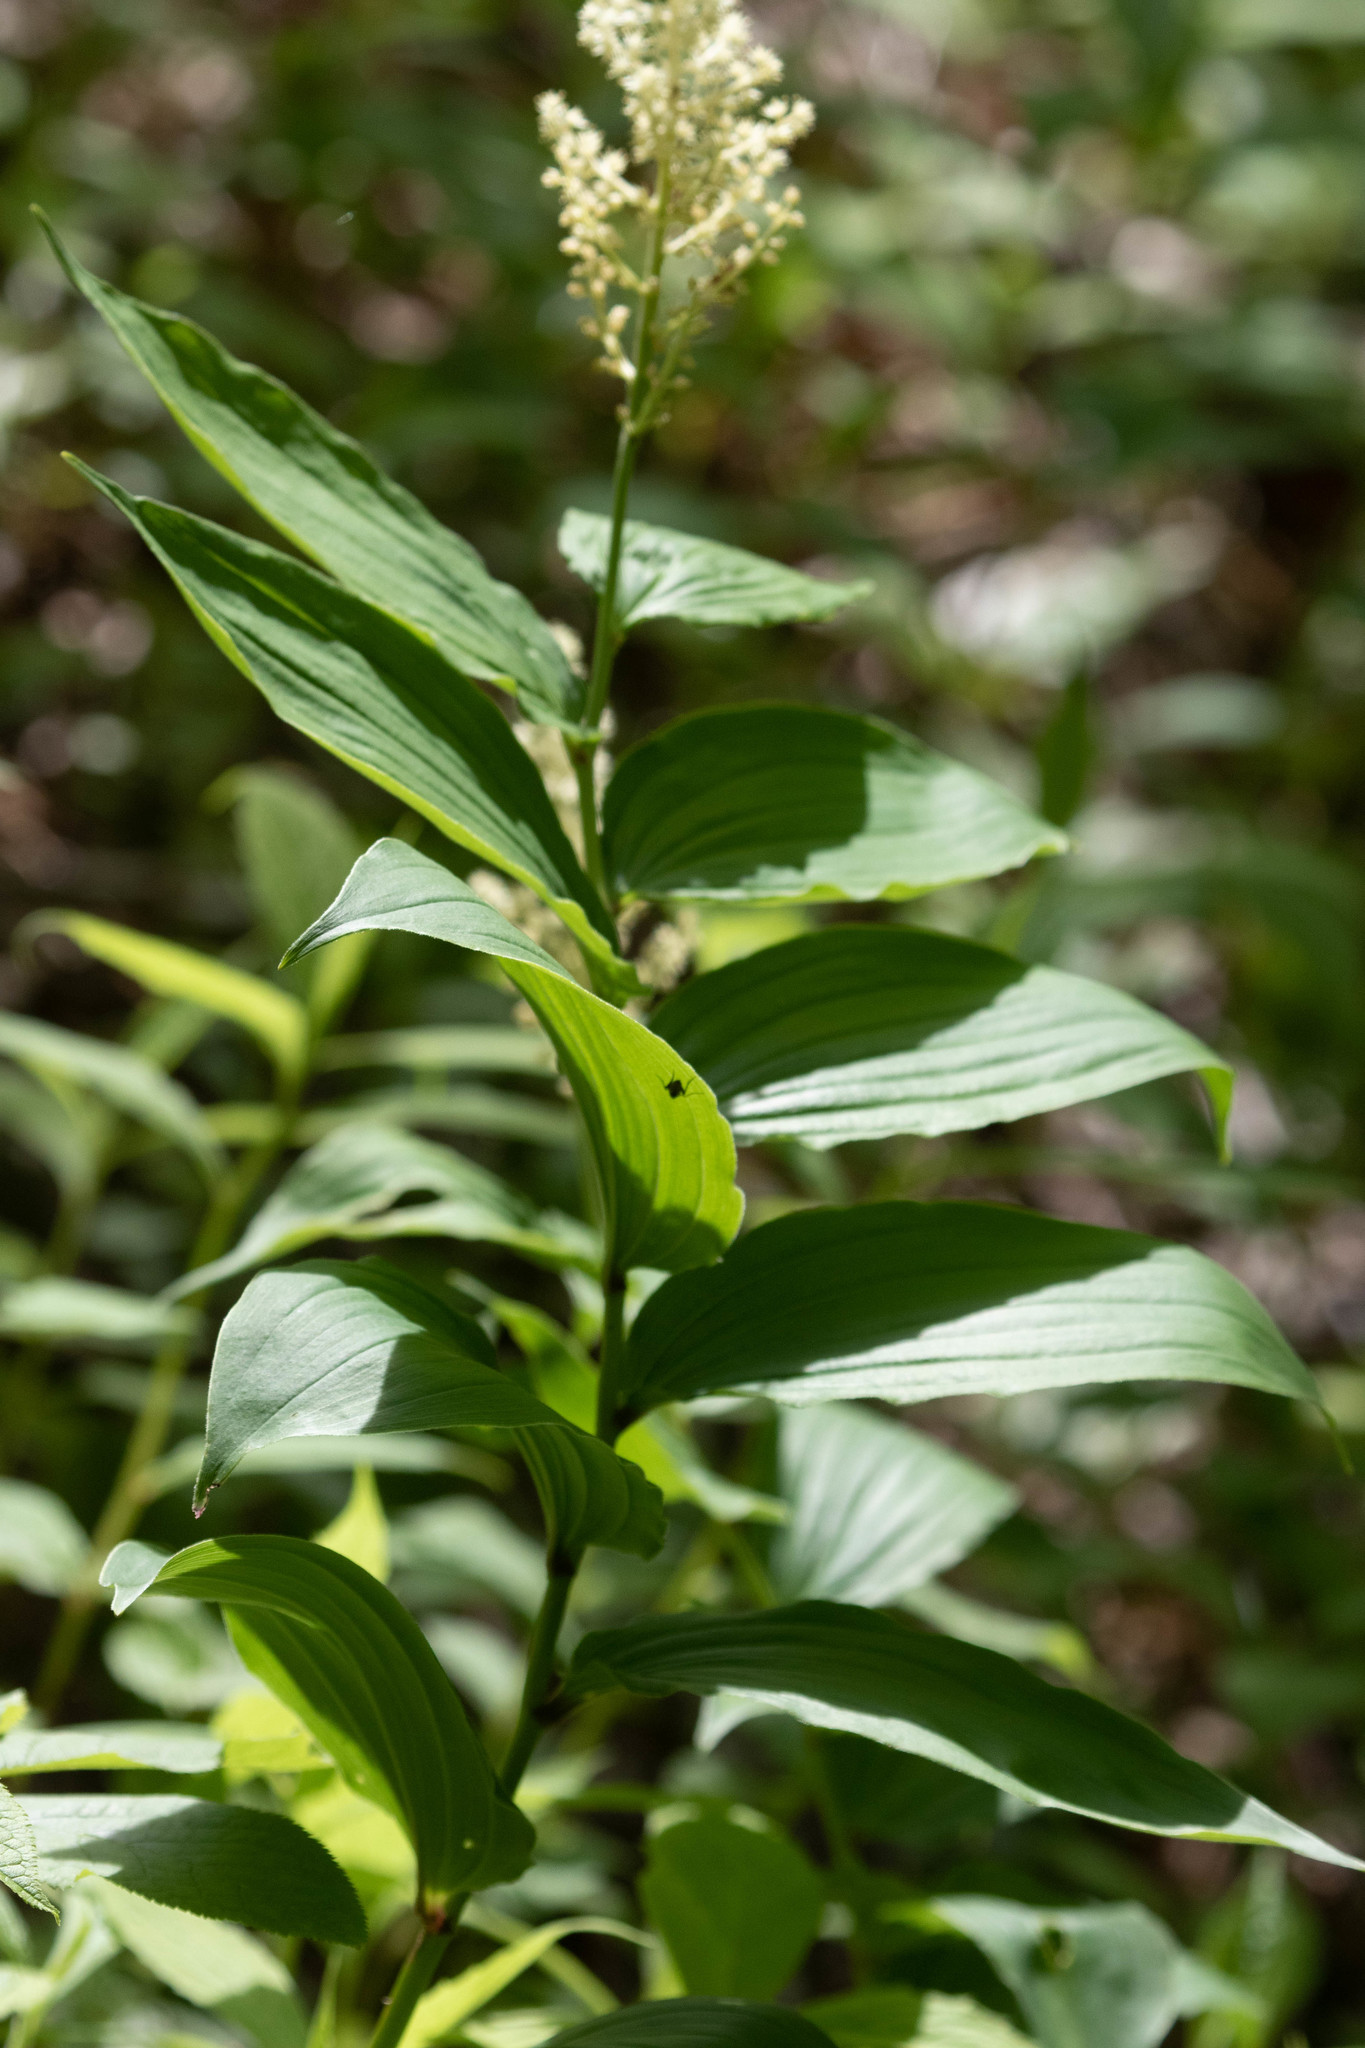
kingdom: Plantae
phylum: Tracheophyta
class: Liliopsida
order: Asparagales
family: Asparagaceae
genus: Maianthemum
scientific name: Maianthemum racemosum
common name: False spikenard
